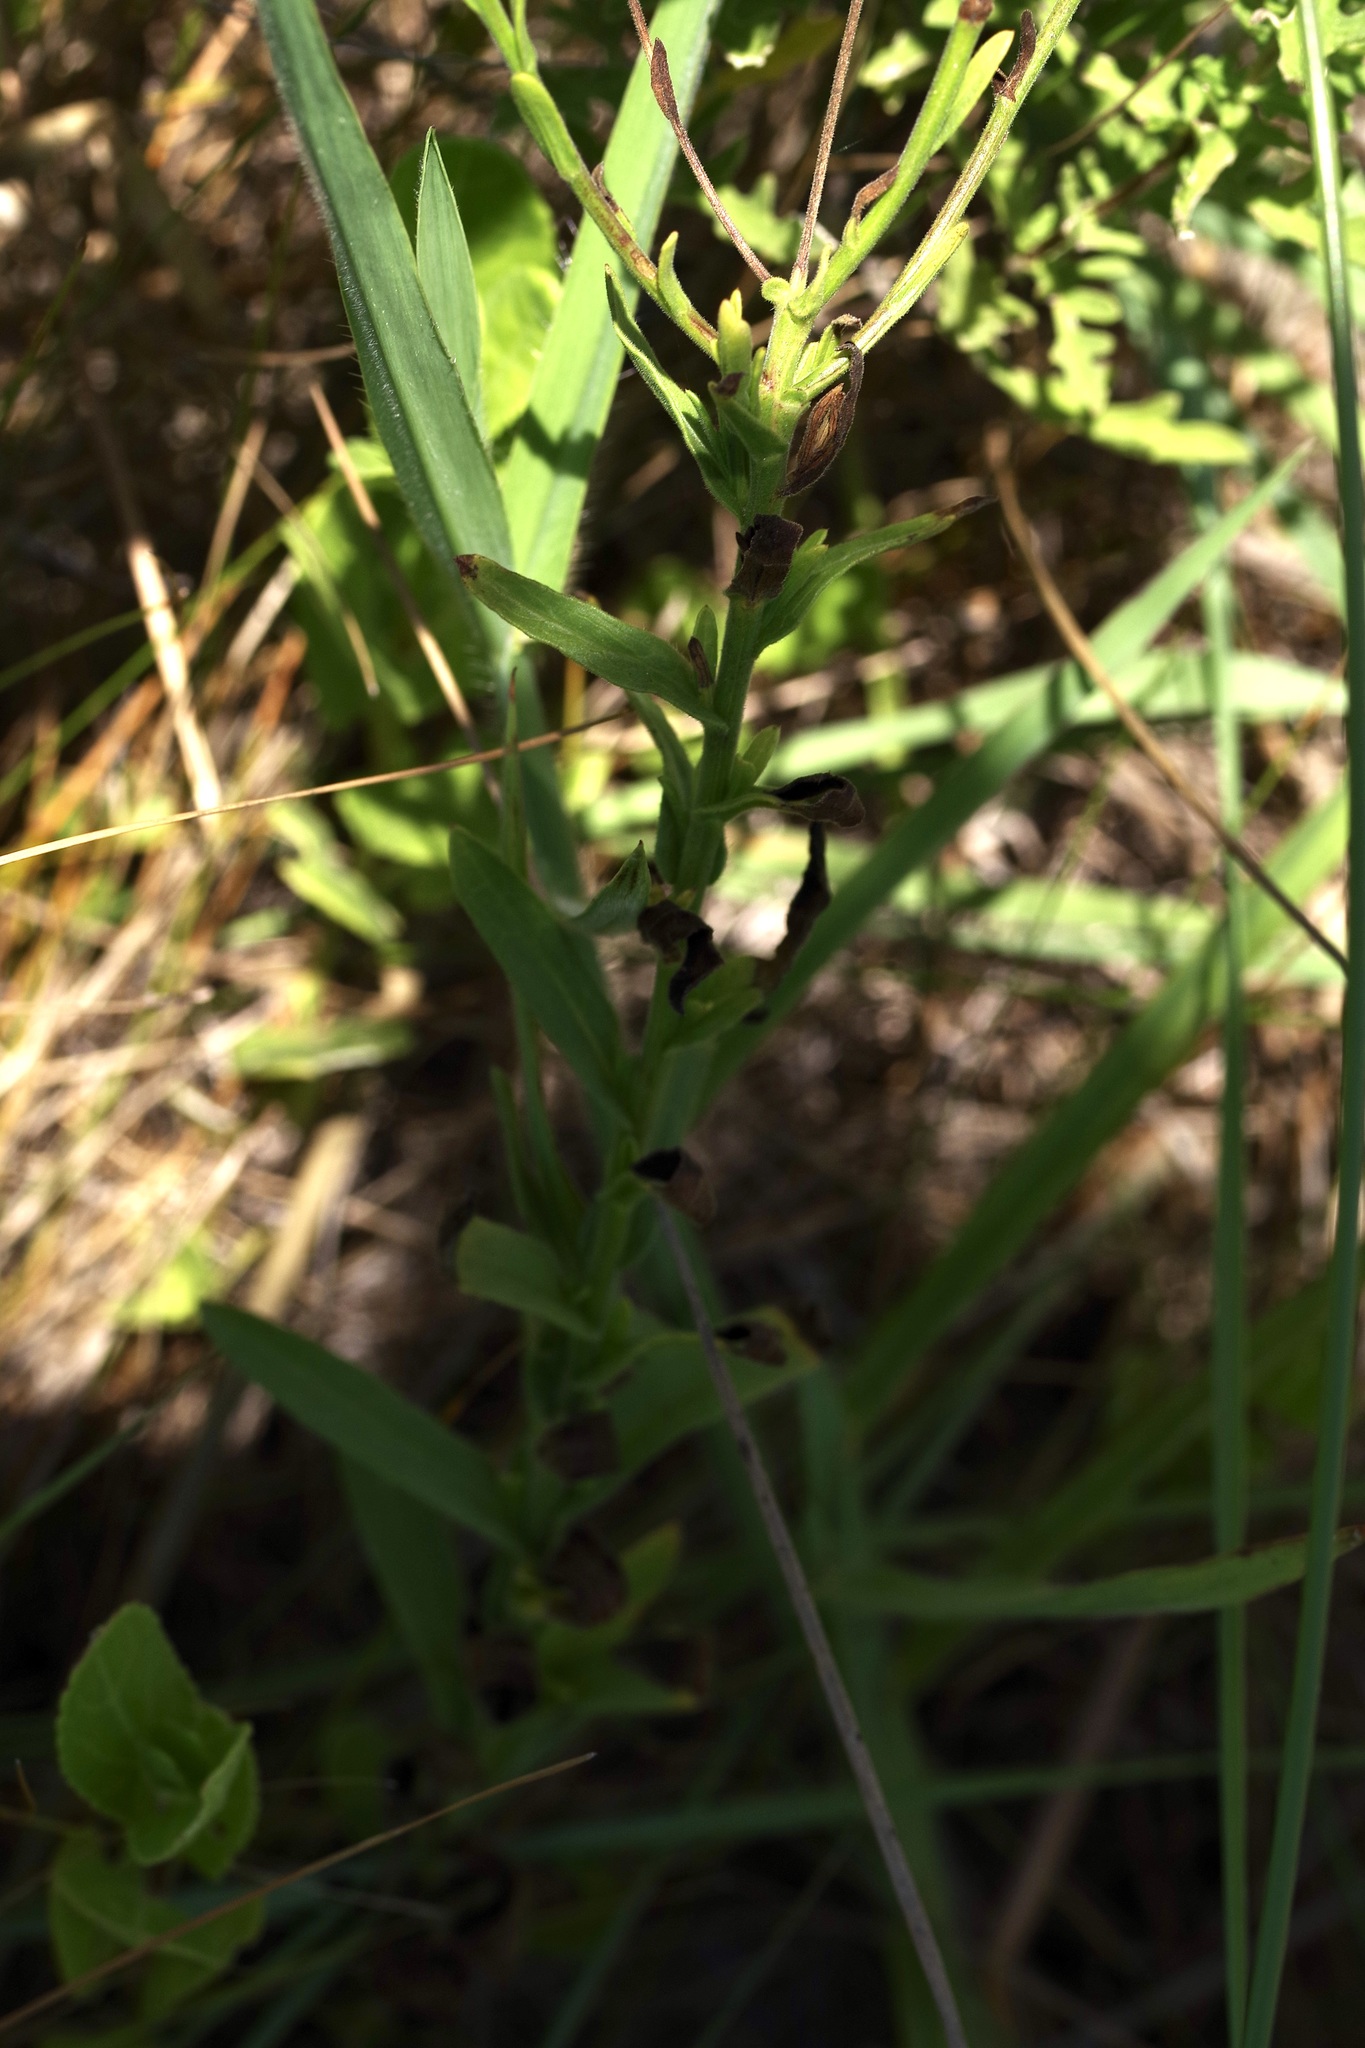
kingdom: Plantae
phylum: Tracheophyta
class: Magnoliopsida
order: Asterales
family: Asteraceae
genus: Bradburia
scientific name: Bradburia pilosa
